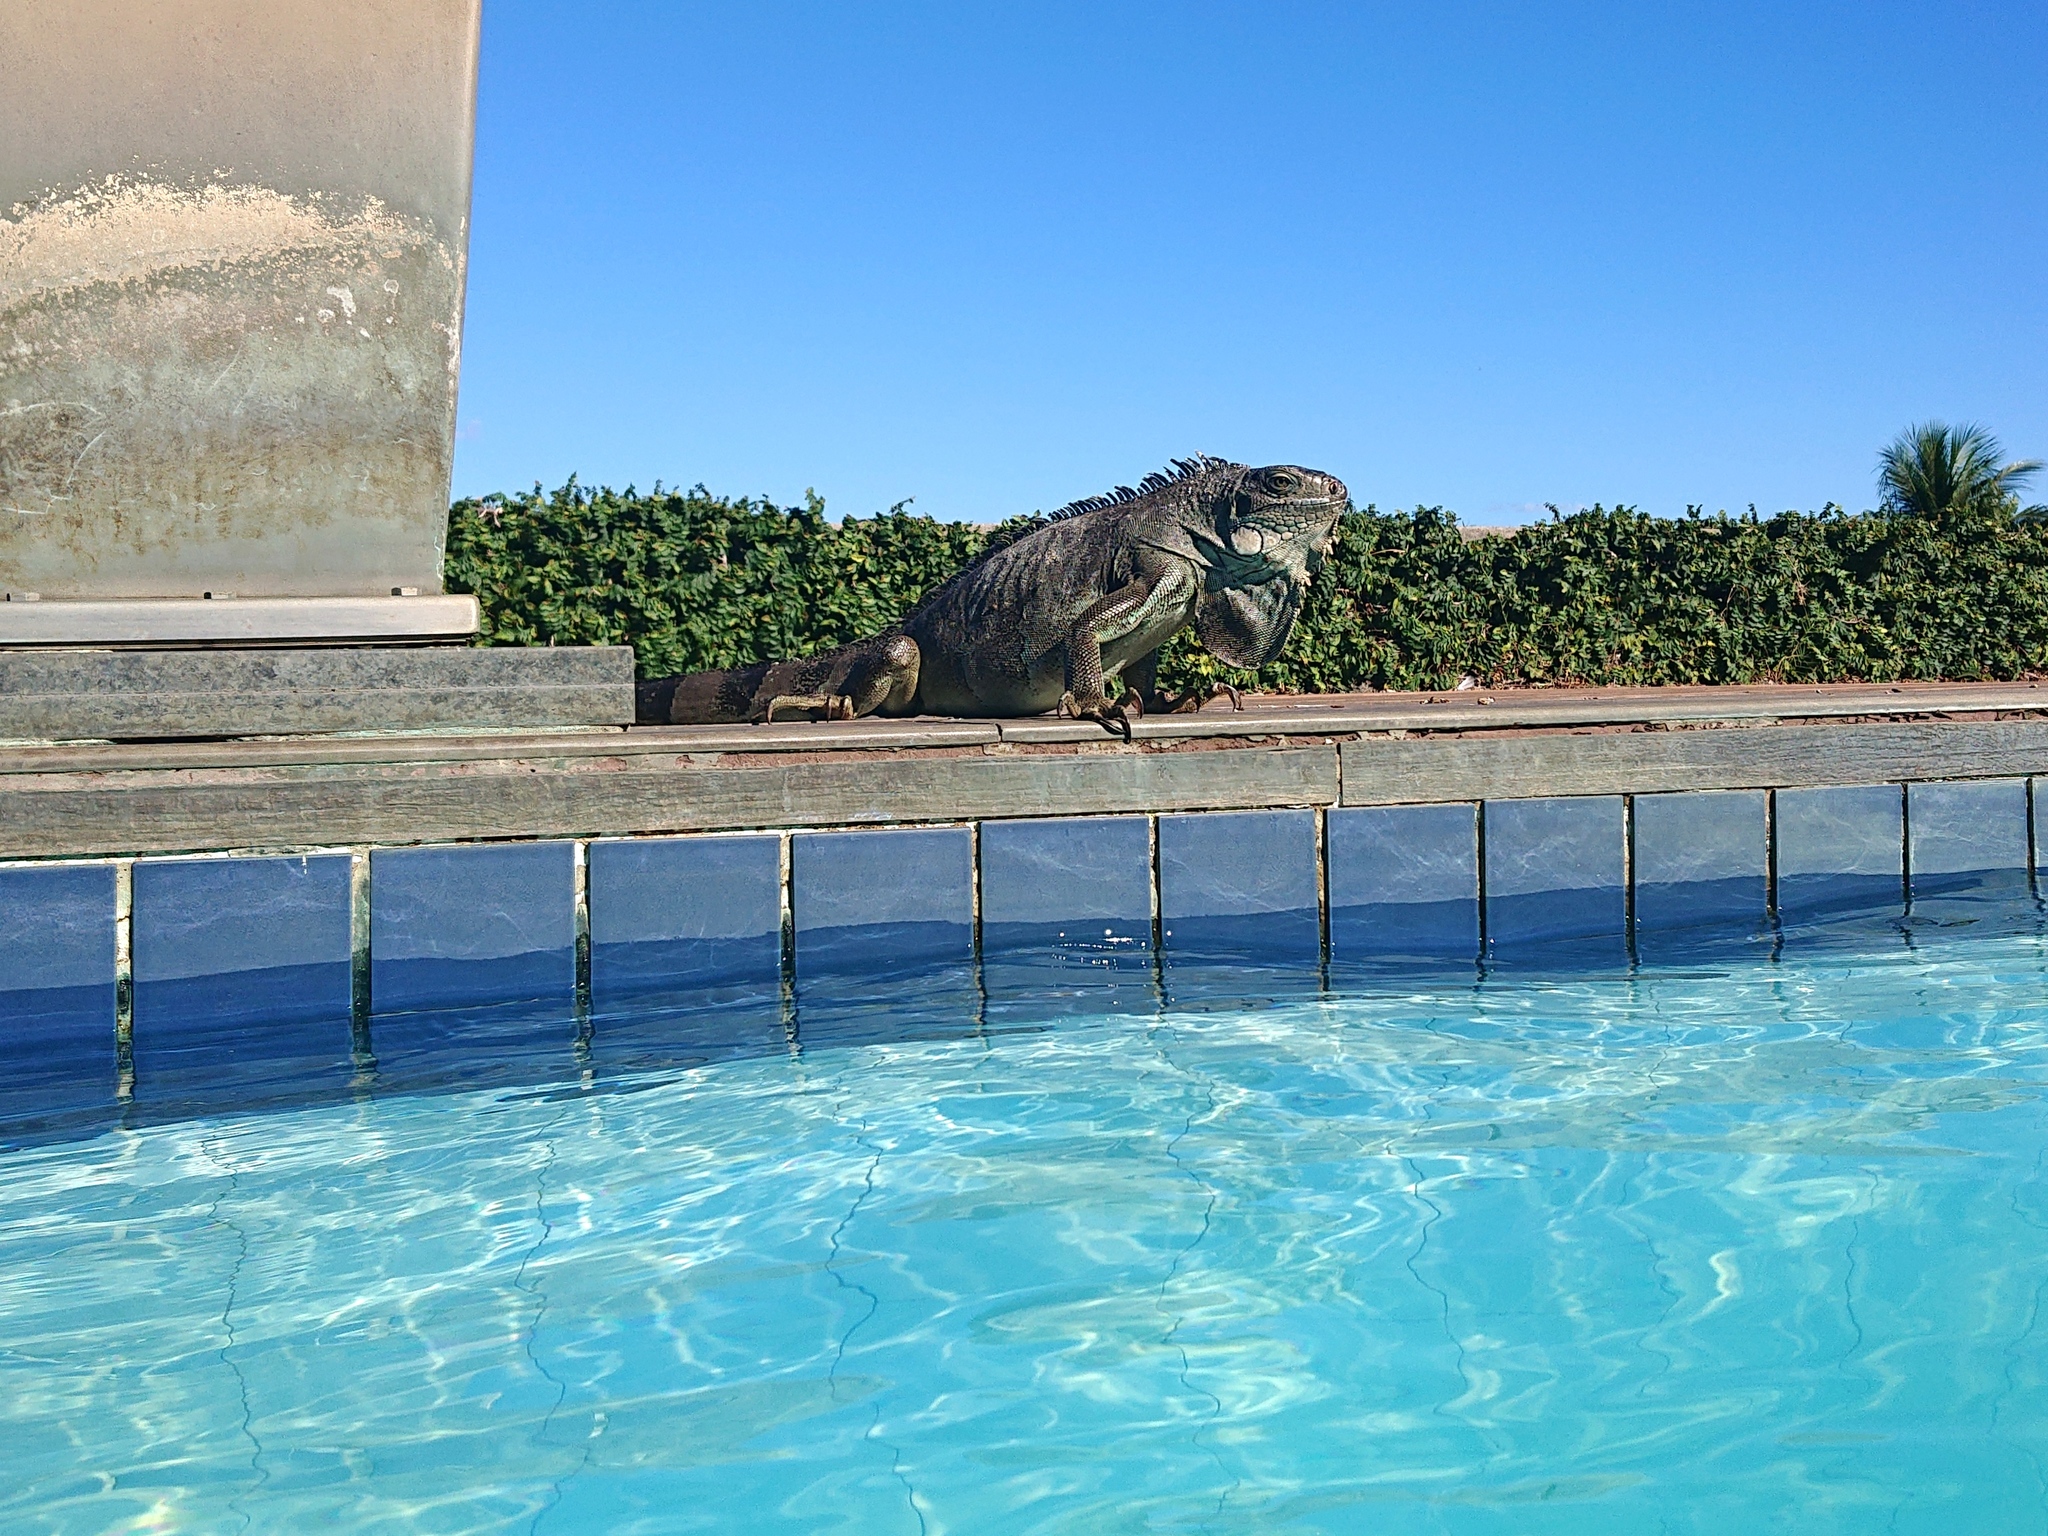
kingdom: Animalia
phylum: Chordata
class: Squamata
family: Iguanidae
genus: Iguana
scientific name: Iguana iguana
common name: Green iguana
